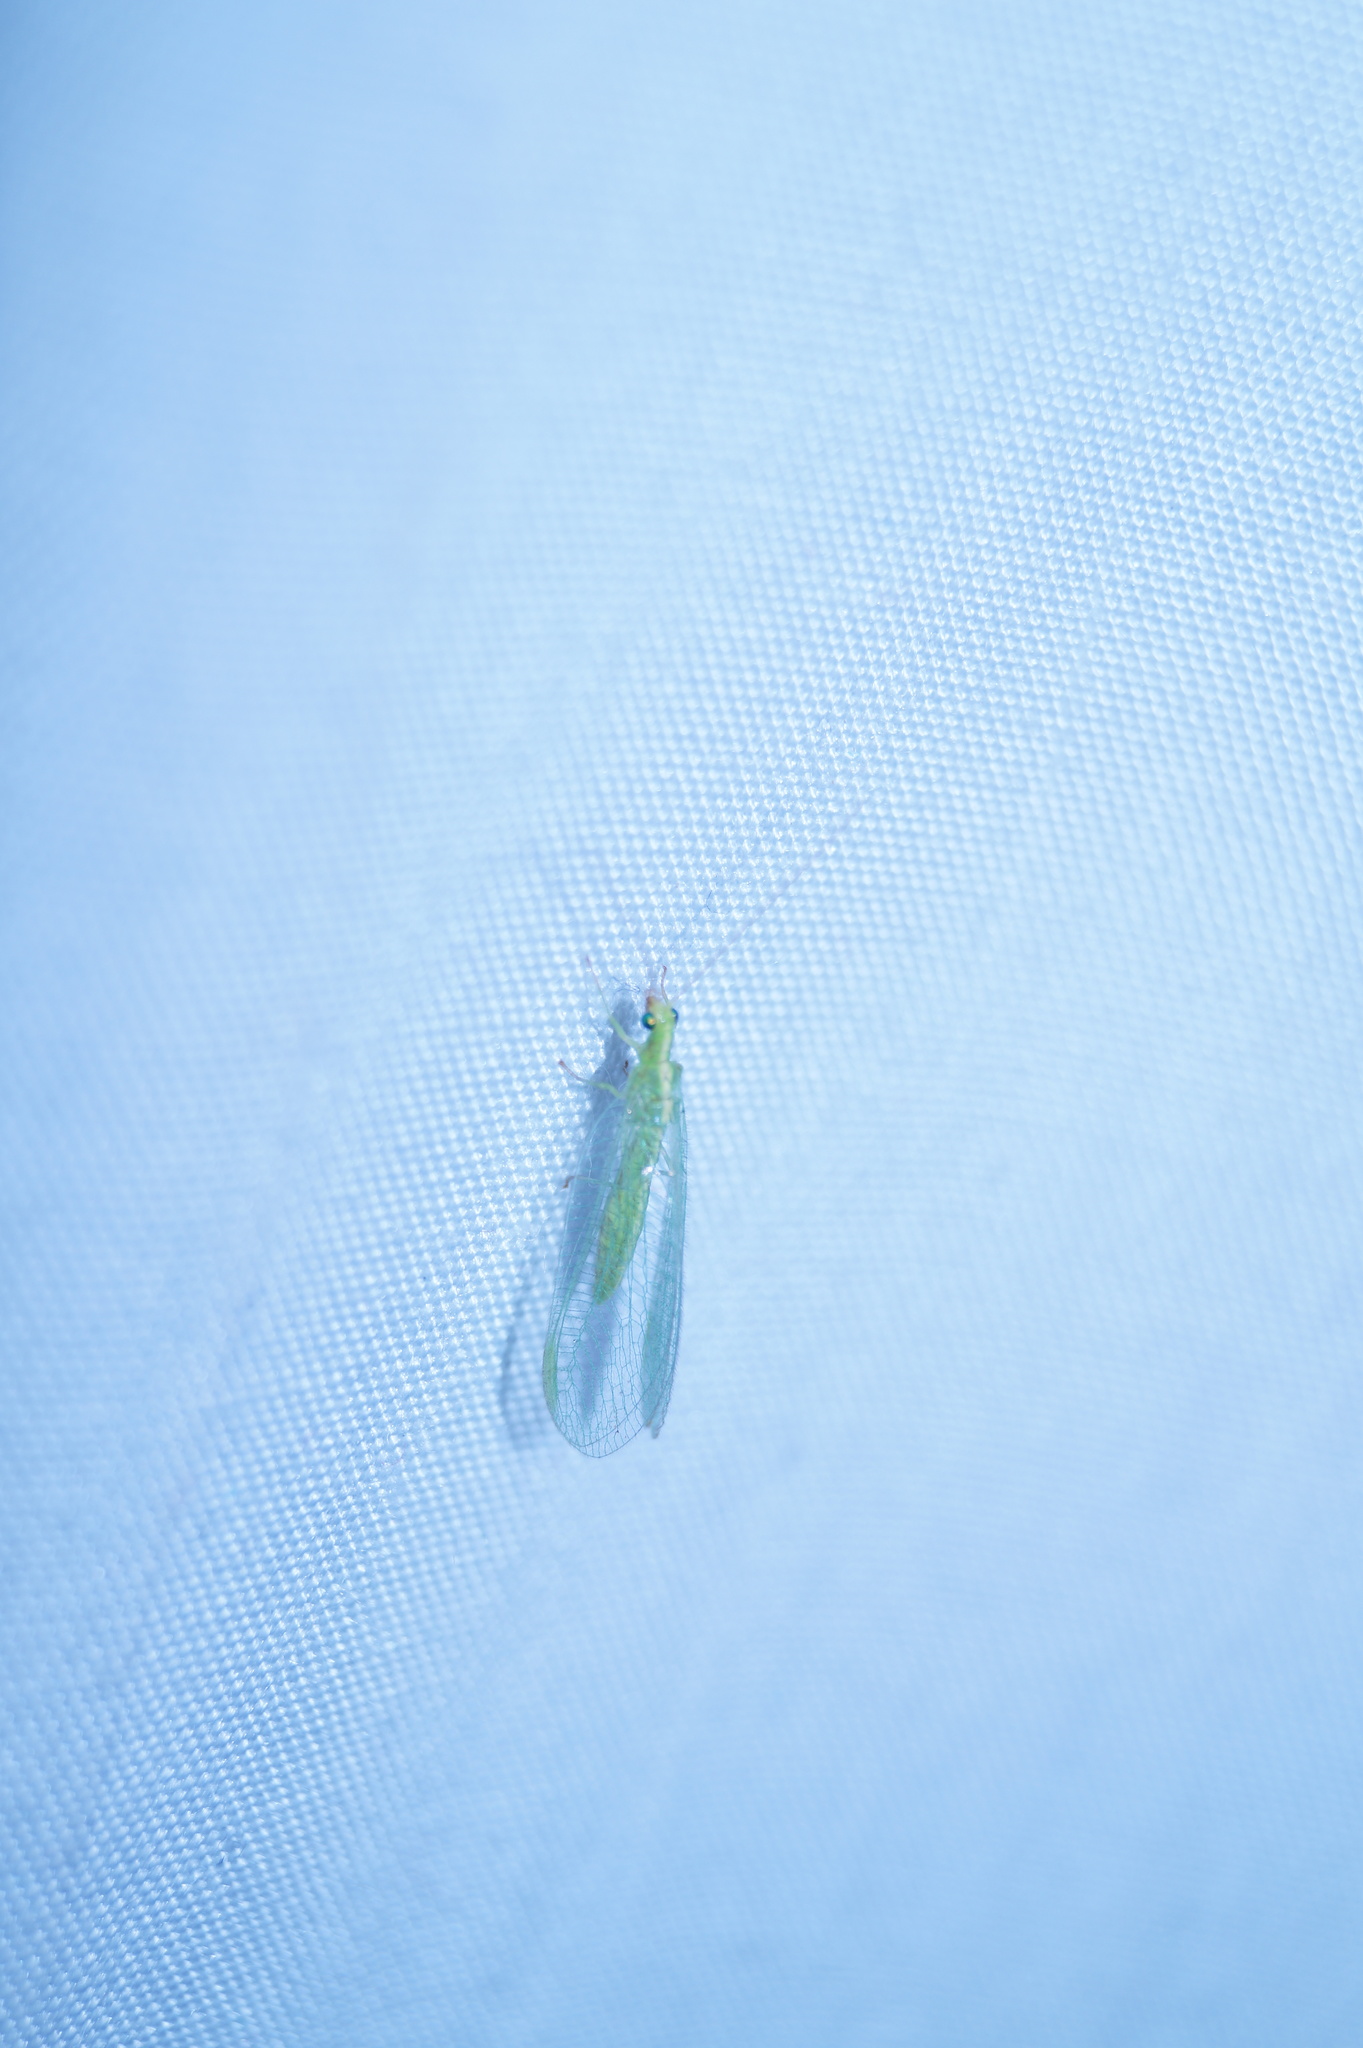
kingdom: Animalia
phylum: Arthropoda
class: Insecta
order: Neuroptera
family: Chrysopidae
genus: Chrysoperla
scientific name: Chrysoperla
